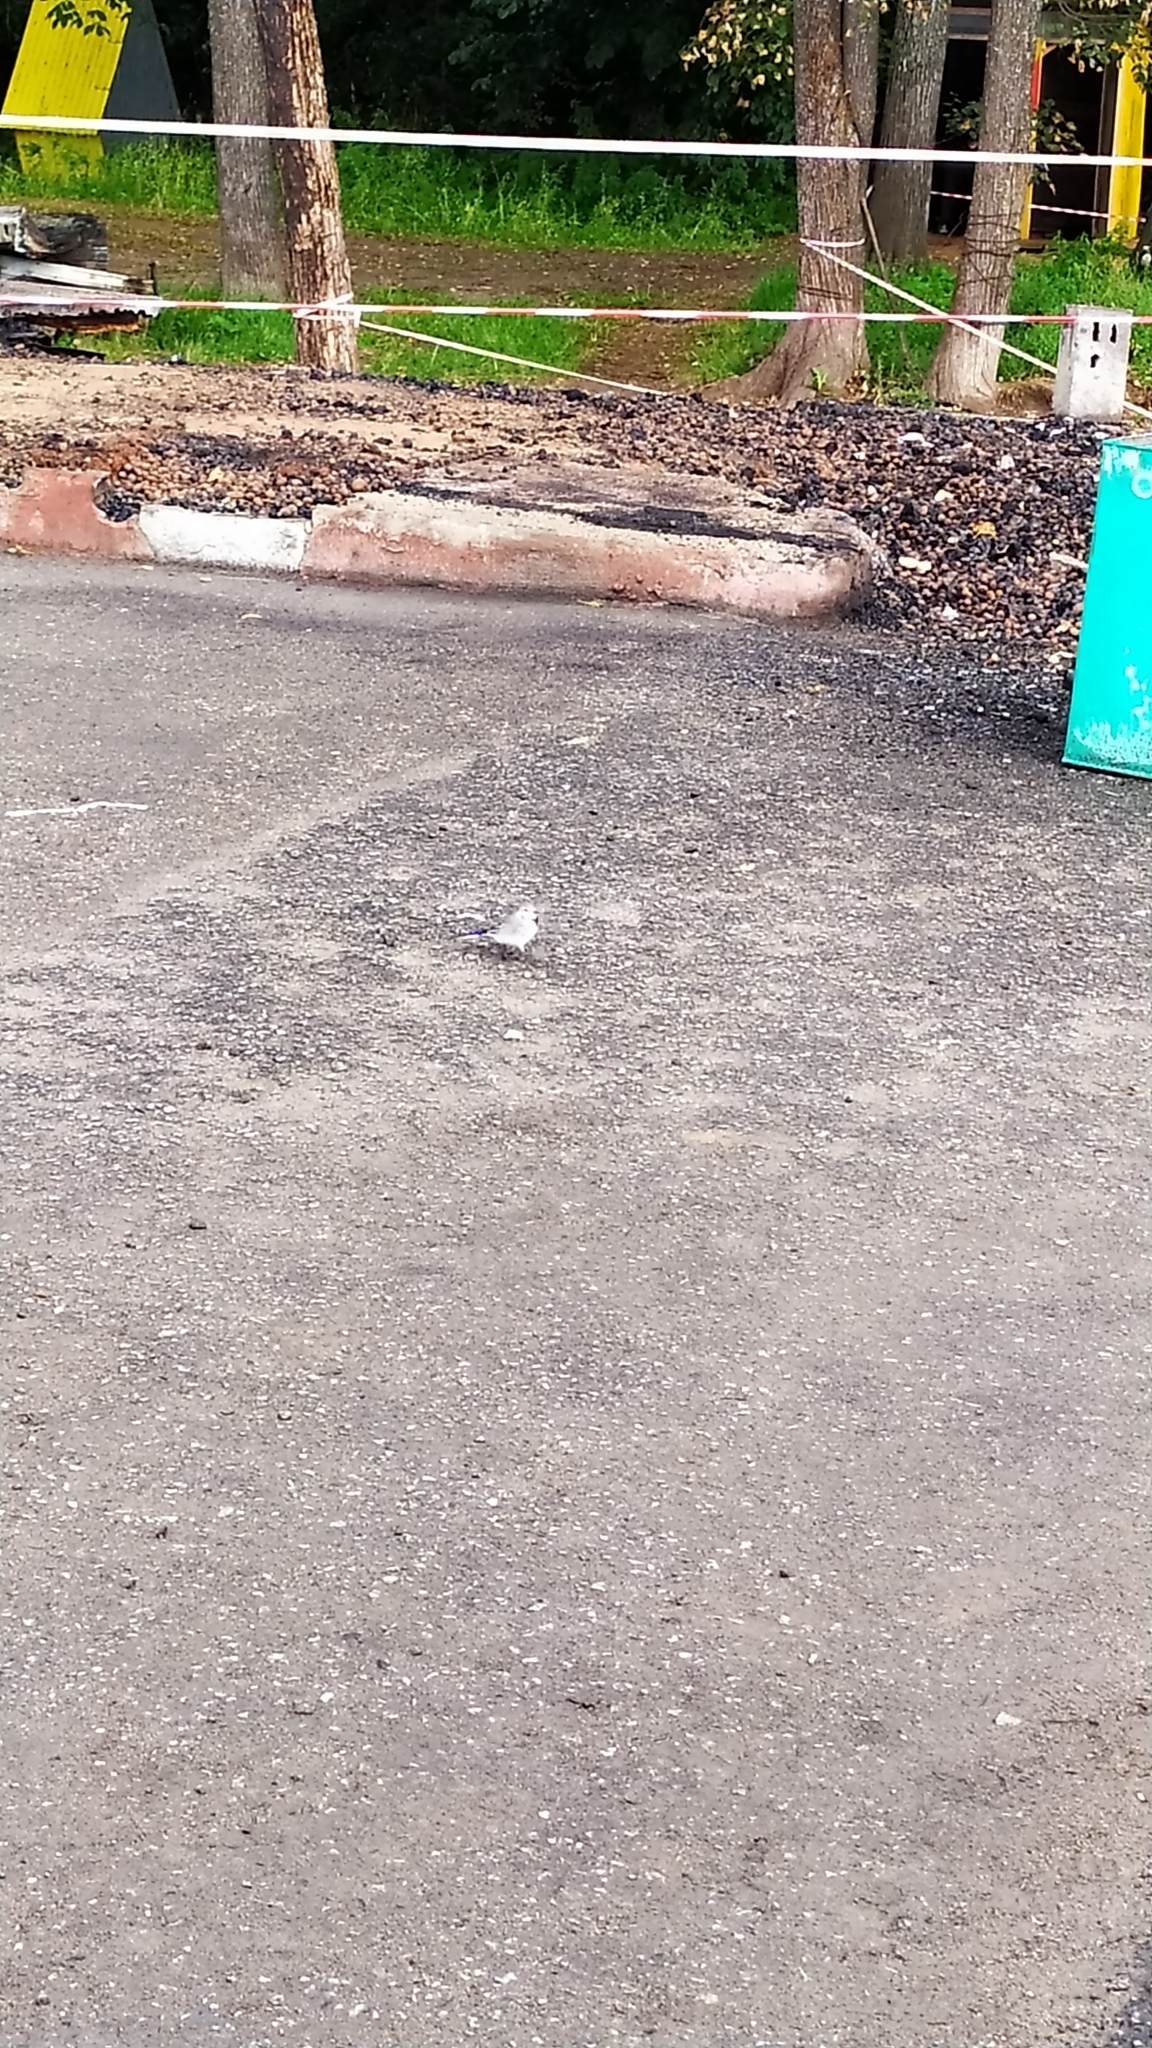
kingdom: Animalia
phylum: Chordata
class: Aves
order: Passeriformes
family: Motacillidae
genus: Motacilla
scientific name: Motacilla alba
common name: White wagtail
